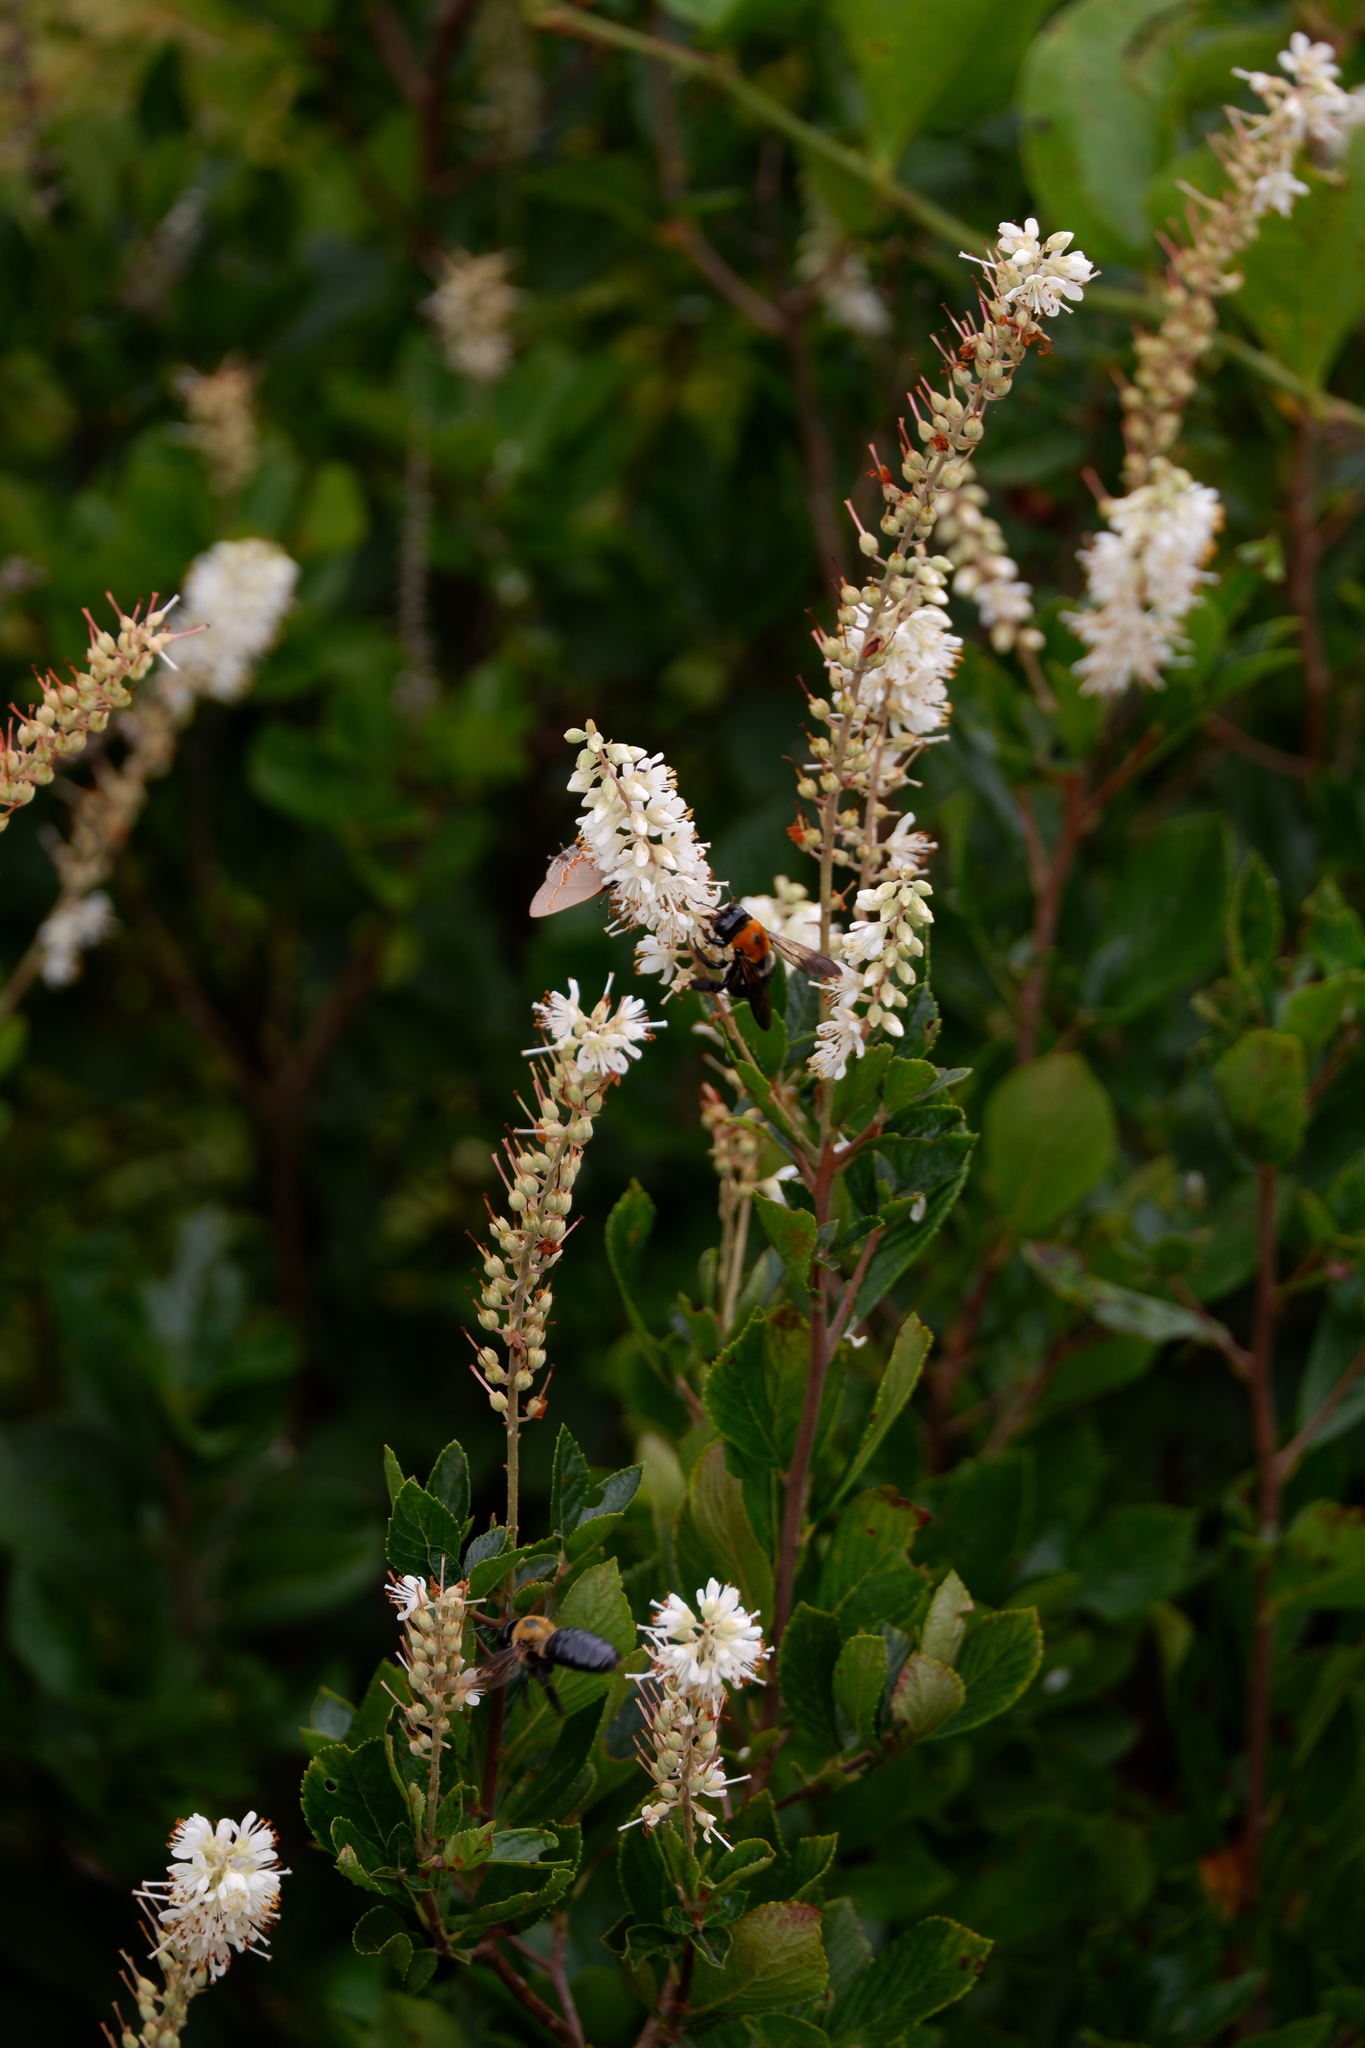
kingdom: Animalia
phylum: Arthropoda
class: Insecta
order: Hymenoptera
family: Apidae
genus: Xylocopa
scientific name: Xylocopa virginica
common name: Carpenter bee
